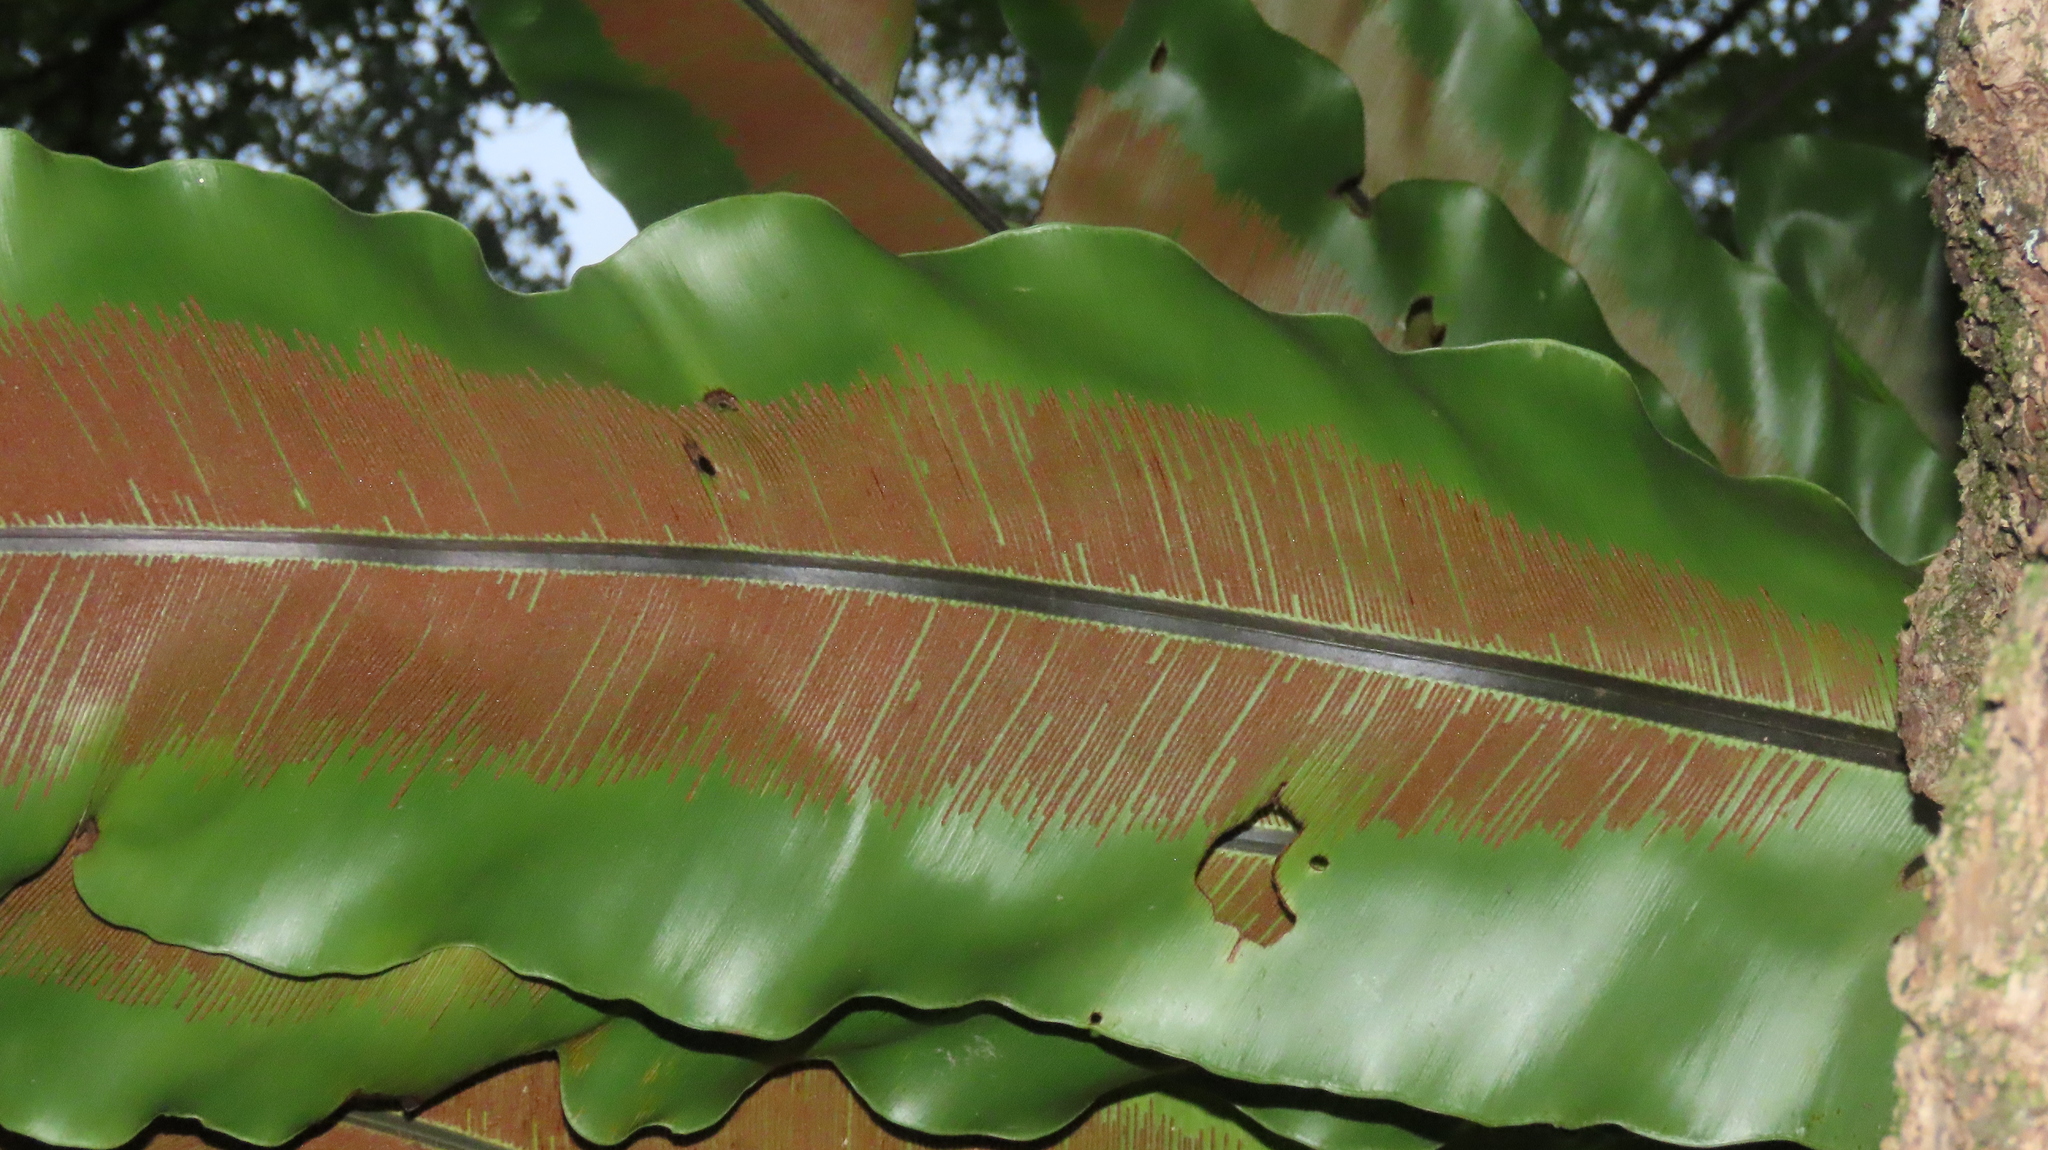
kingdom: Plantae
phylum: Tracheophyta
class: Polypodiopsida
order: Polypodiales
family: Aspleniaceae
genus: Asplenium
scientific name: Asplenium setoi
